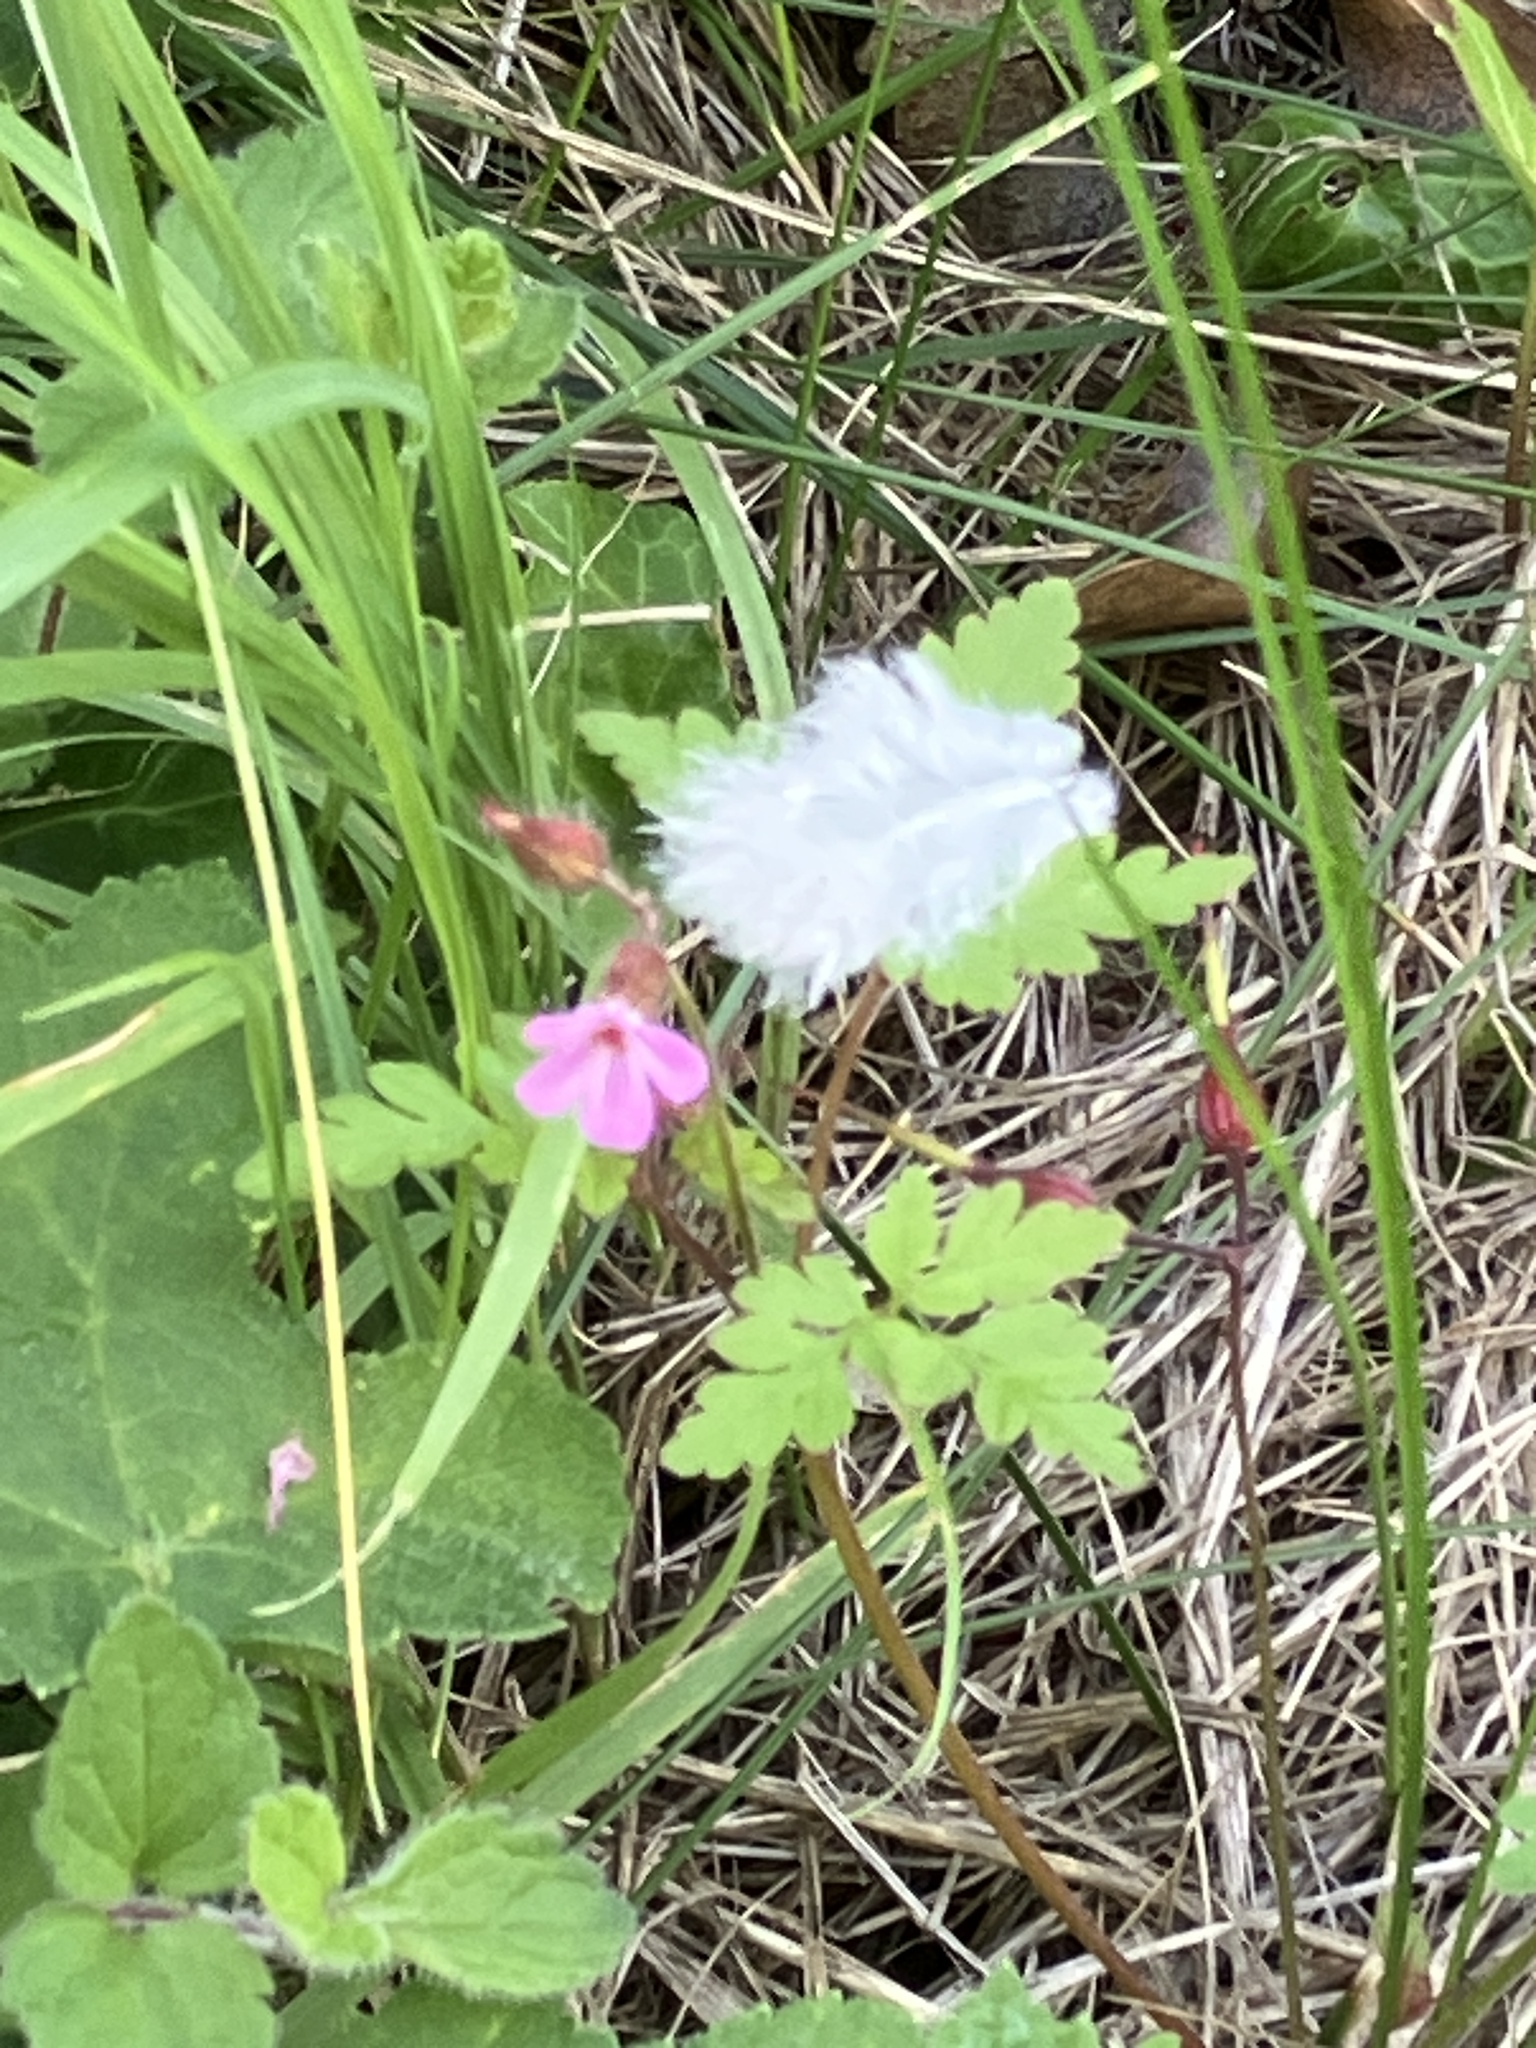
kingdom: Plantae
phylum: Tracheophyta
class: Magnoliopsida
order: Geraniales
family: Geraniaceae
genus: Geranium
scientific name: Geranium robertianum
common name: Herb-robert
